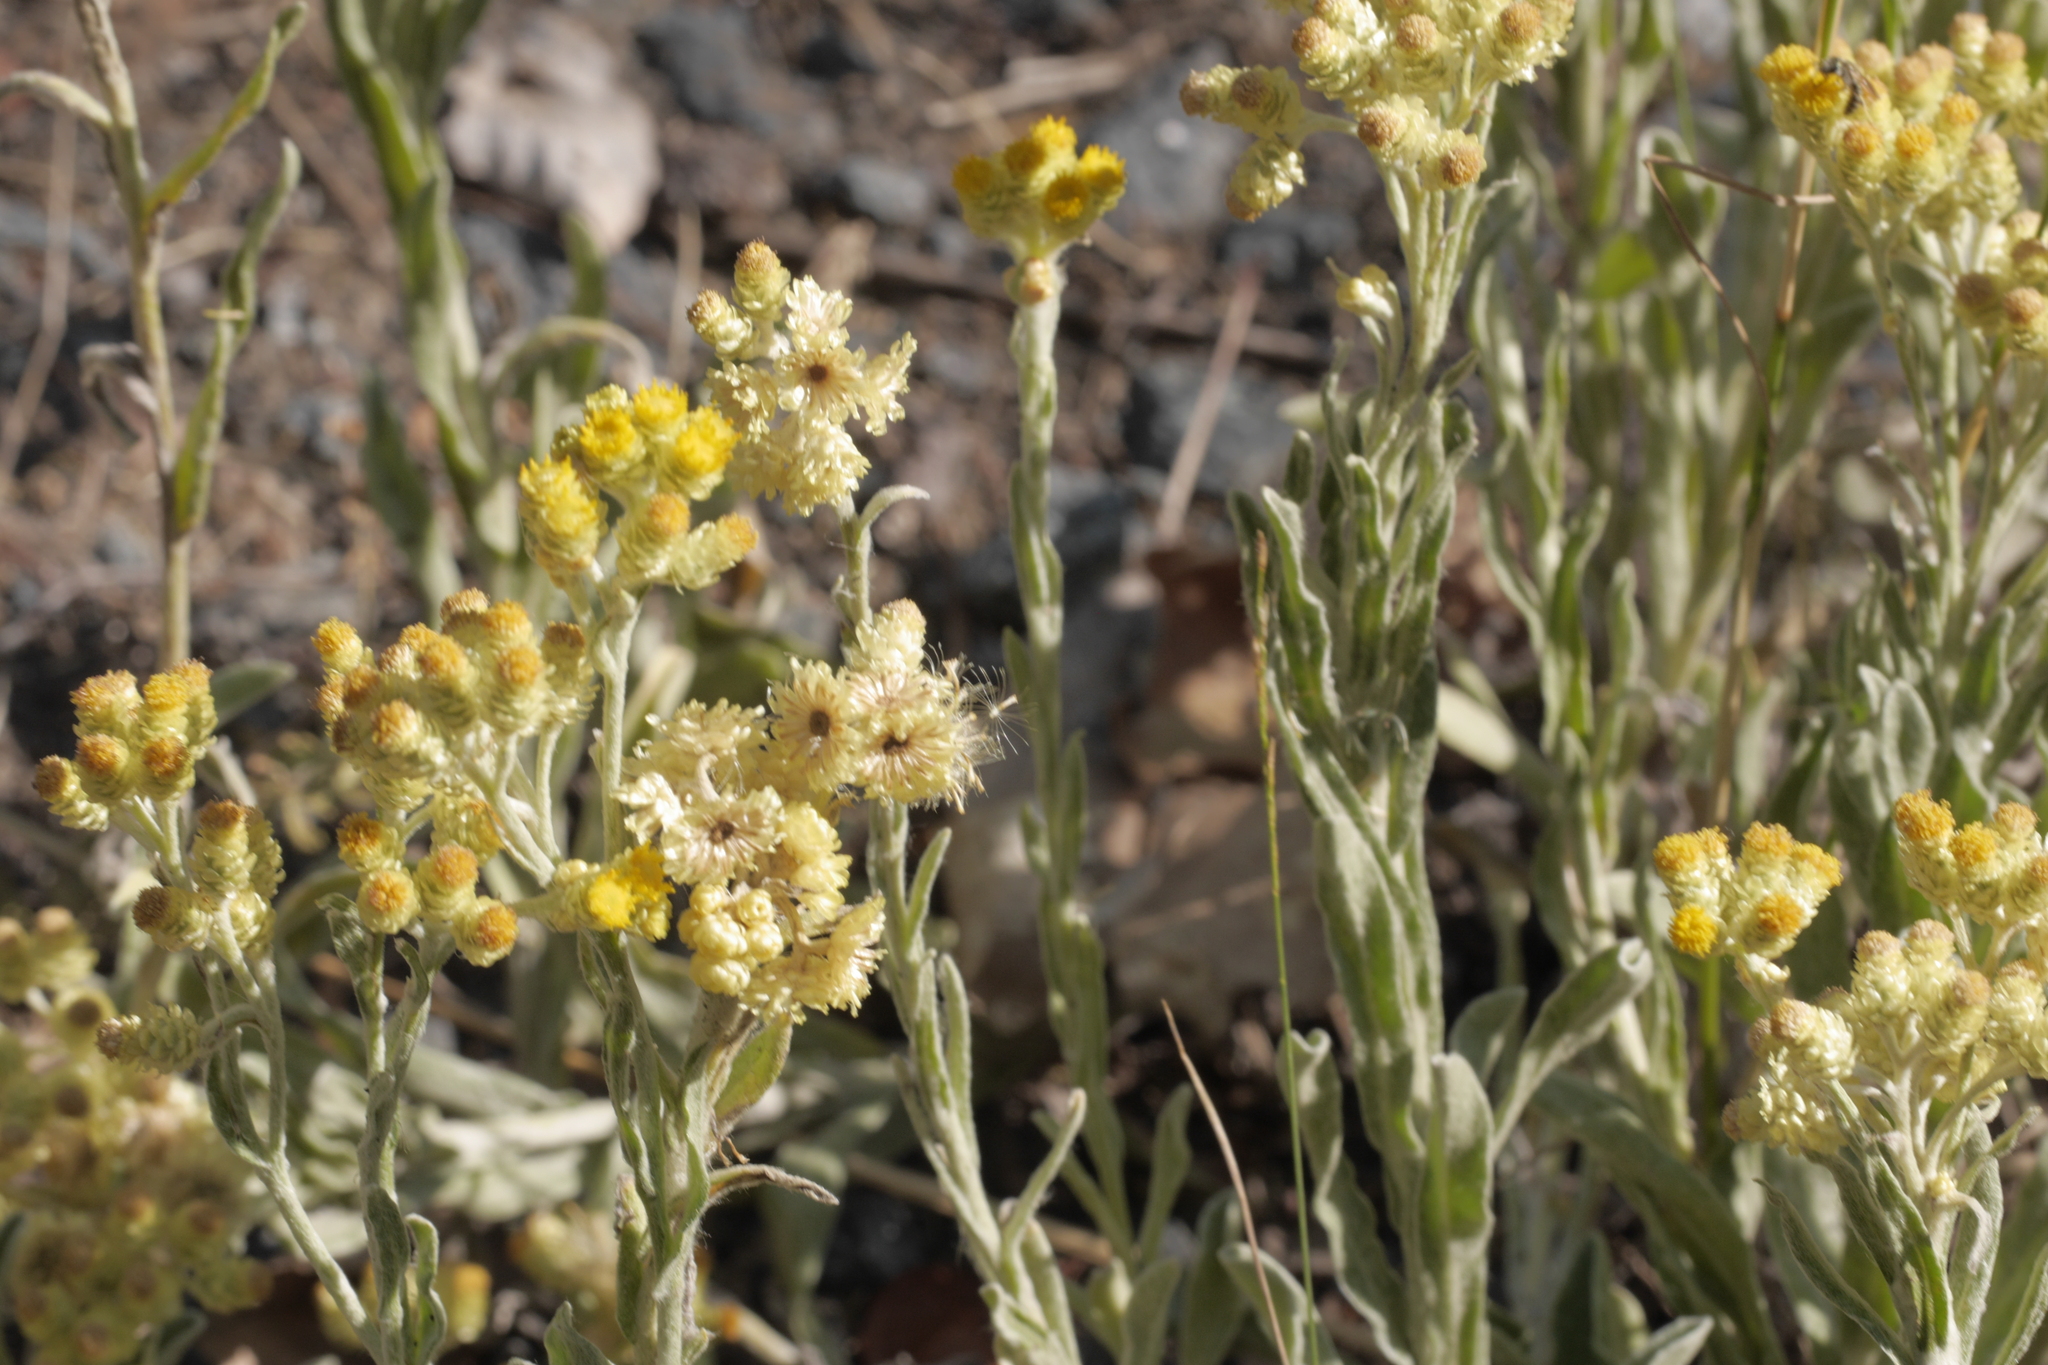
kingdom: Plantae
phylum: Tracheophyta
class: Magnoliopsida
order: Asterales
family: Asteraceae
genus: Helichrysum
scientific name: Helichrysum arenarium
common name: Strawflower
